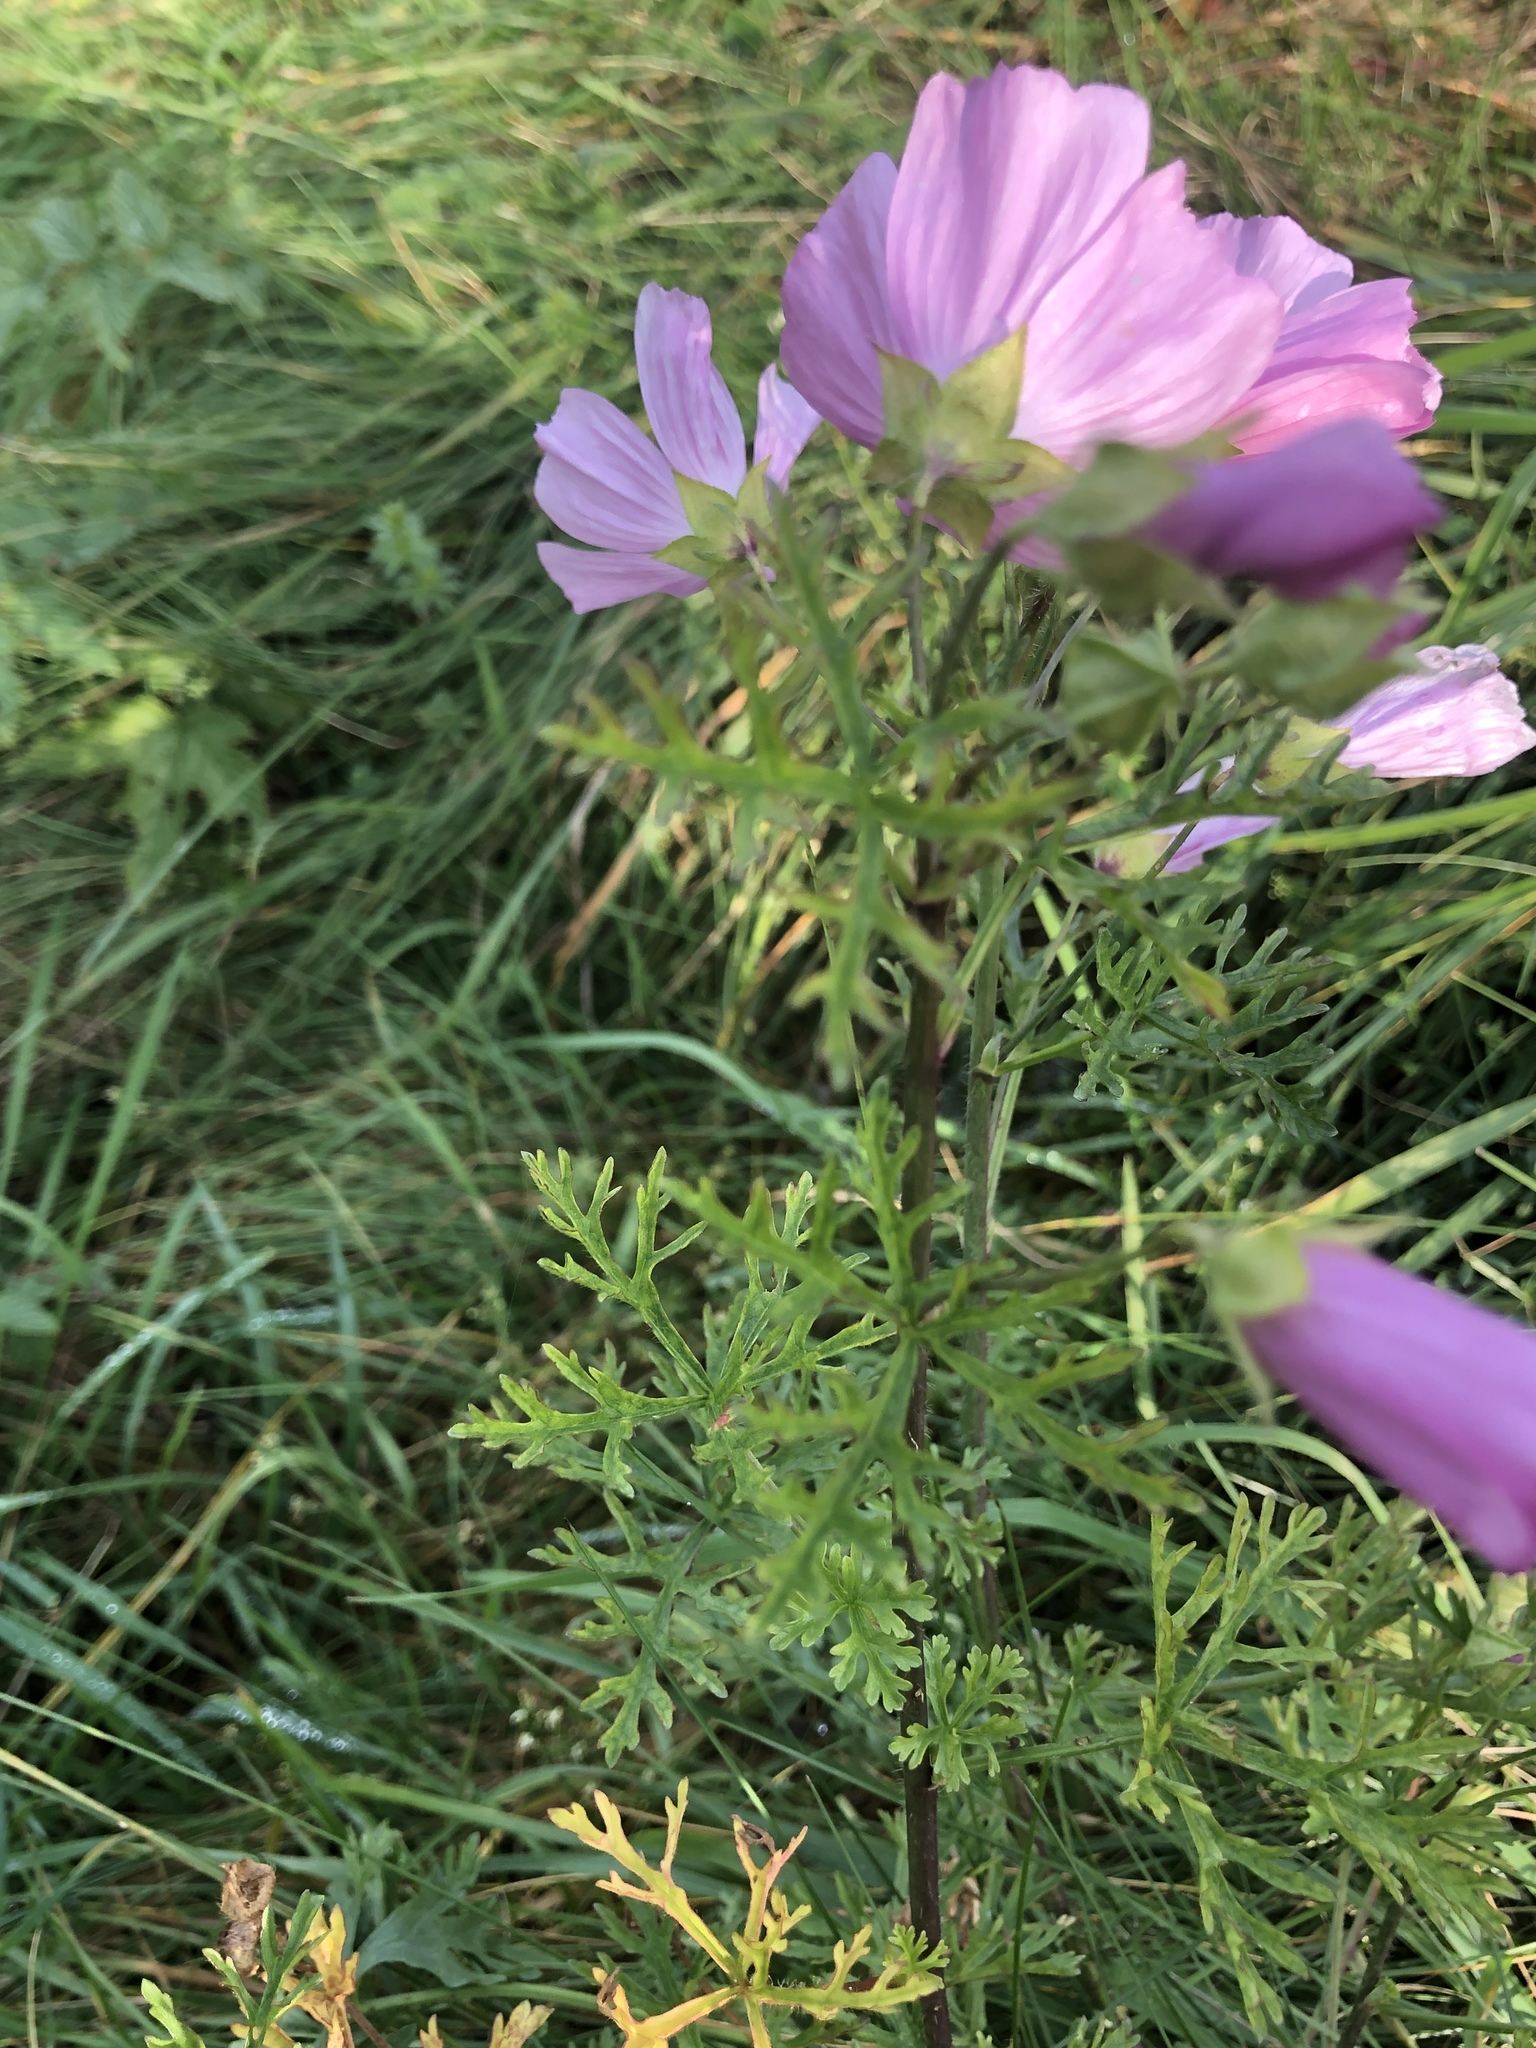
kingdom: Plantae
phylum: Tracheophyta
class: Magnoliopsida
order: Malvales
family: Malvaceae
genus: Malva
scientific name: Malva moschata
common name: Musk mallow
